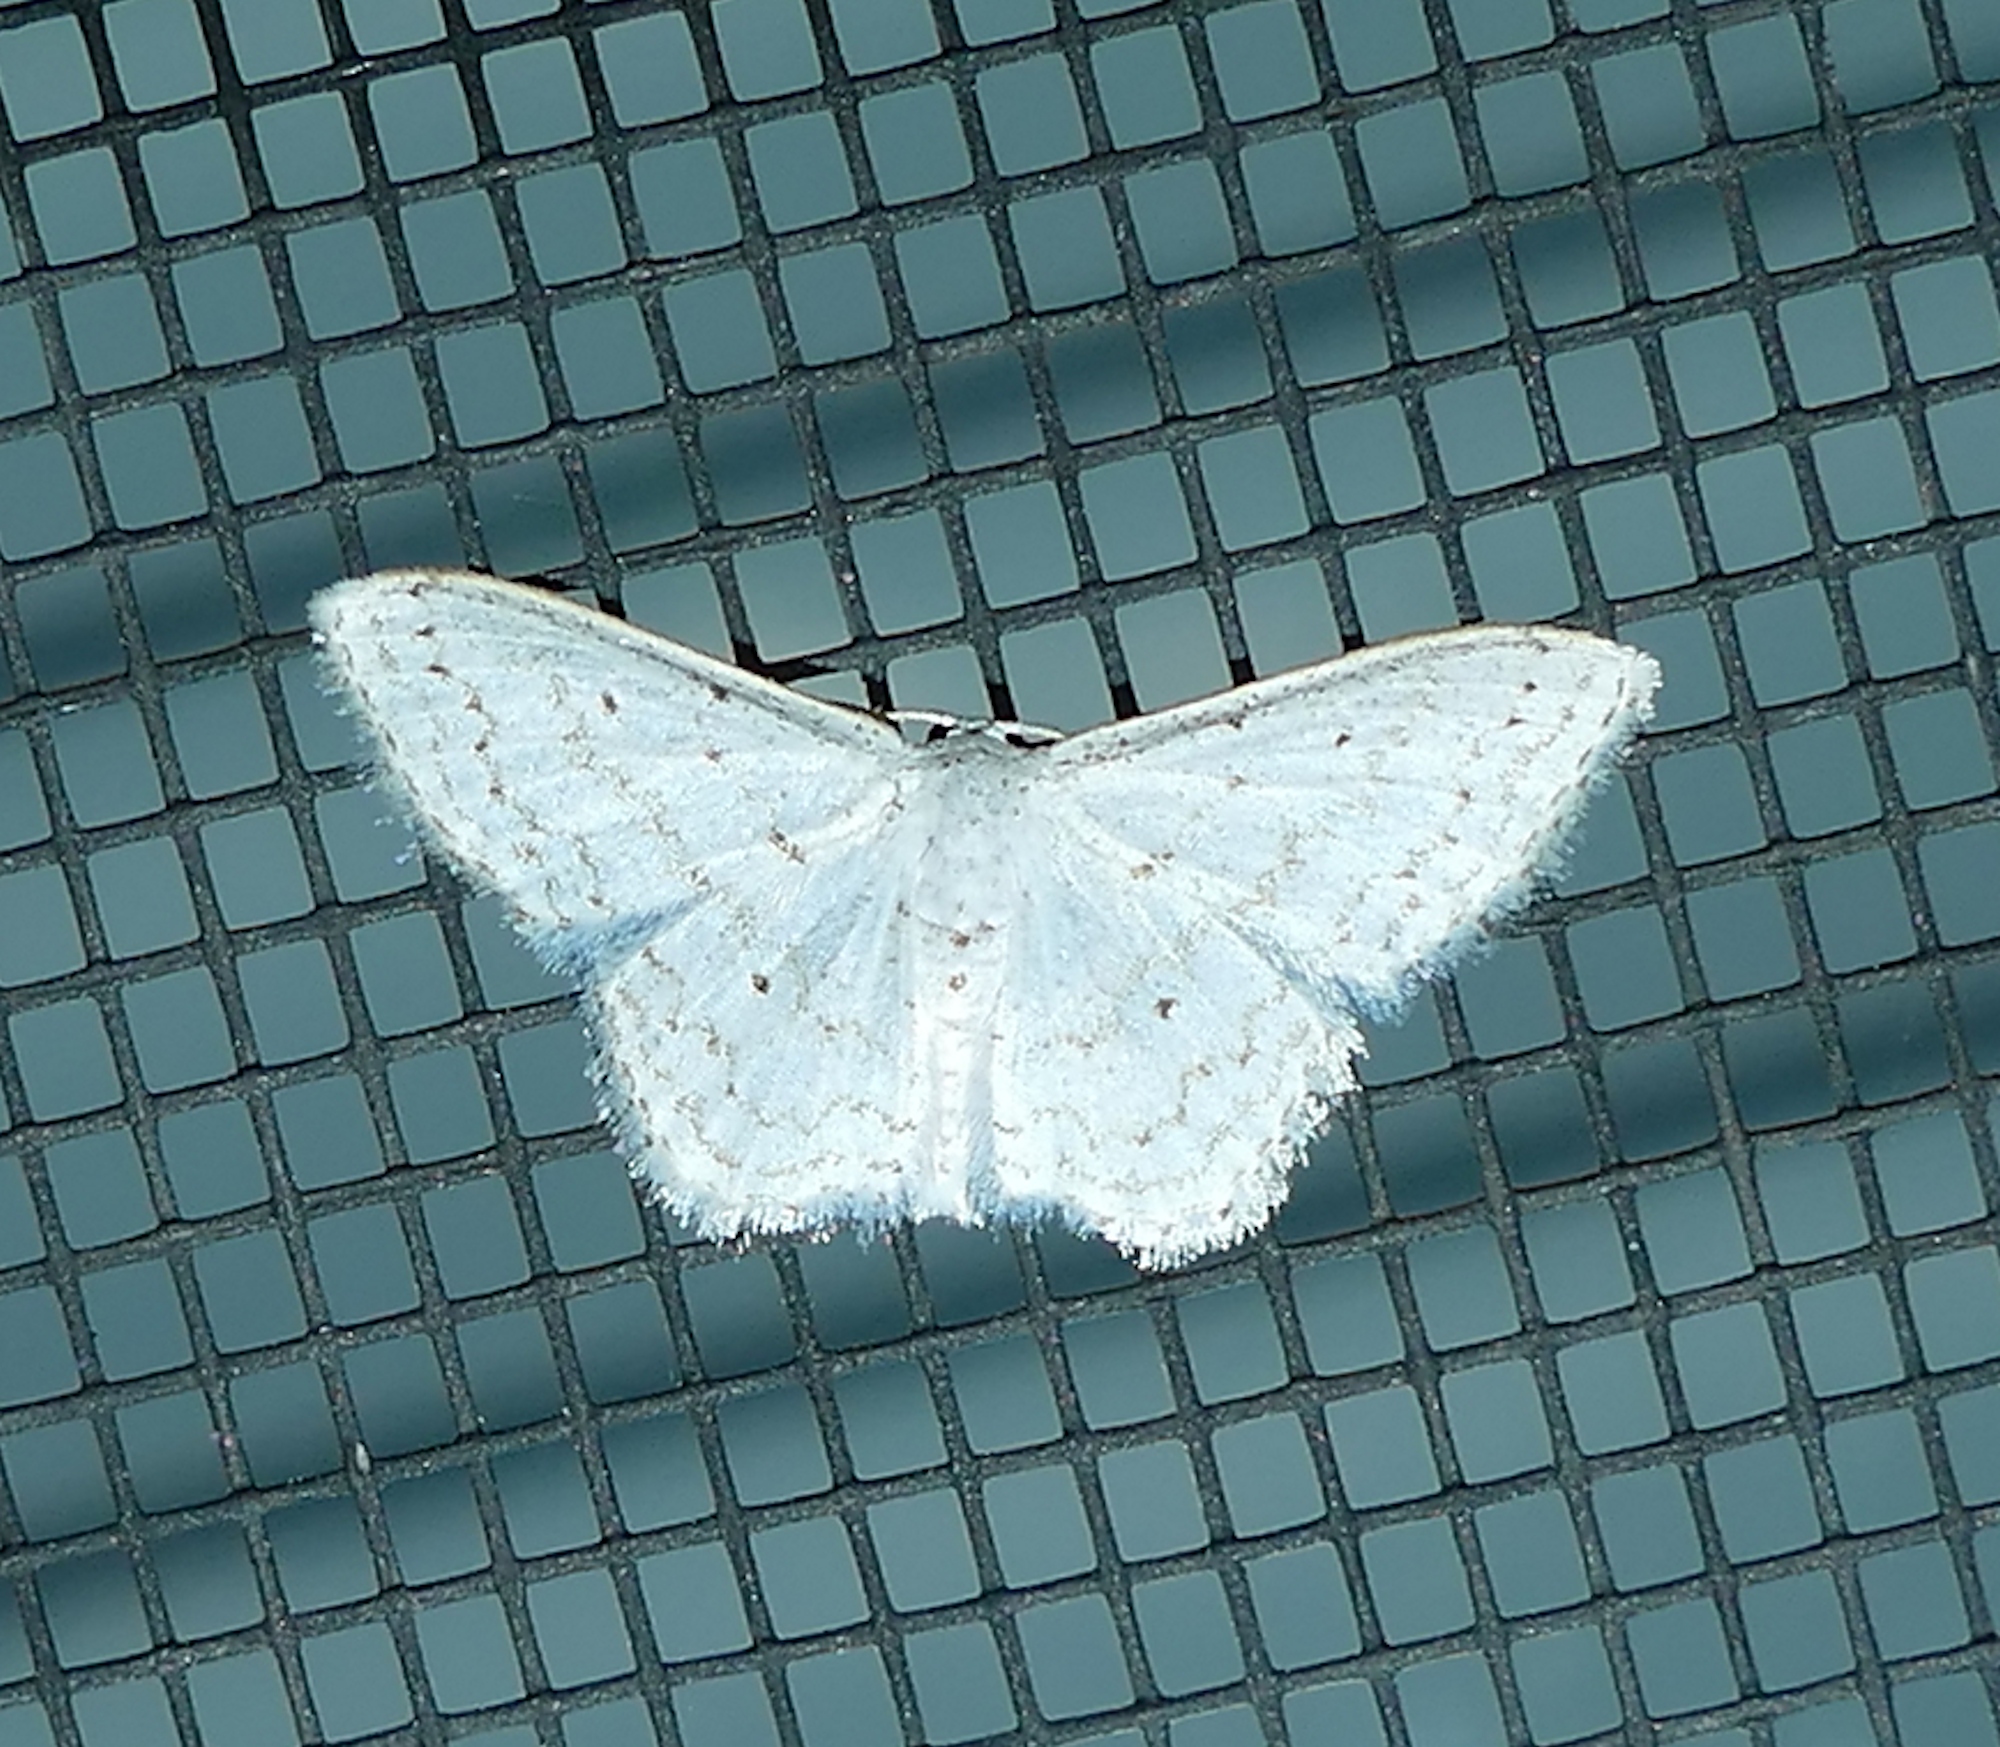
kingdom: Animalia
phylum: Arthropoda
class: Insecta
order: Lepidoptera
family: Geometridae
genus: Idaea
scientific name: Idaea tacturata
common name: Dot-lined wave
